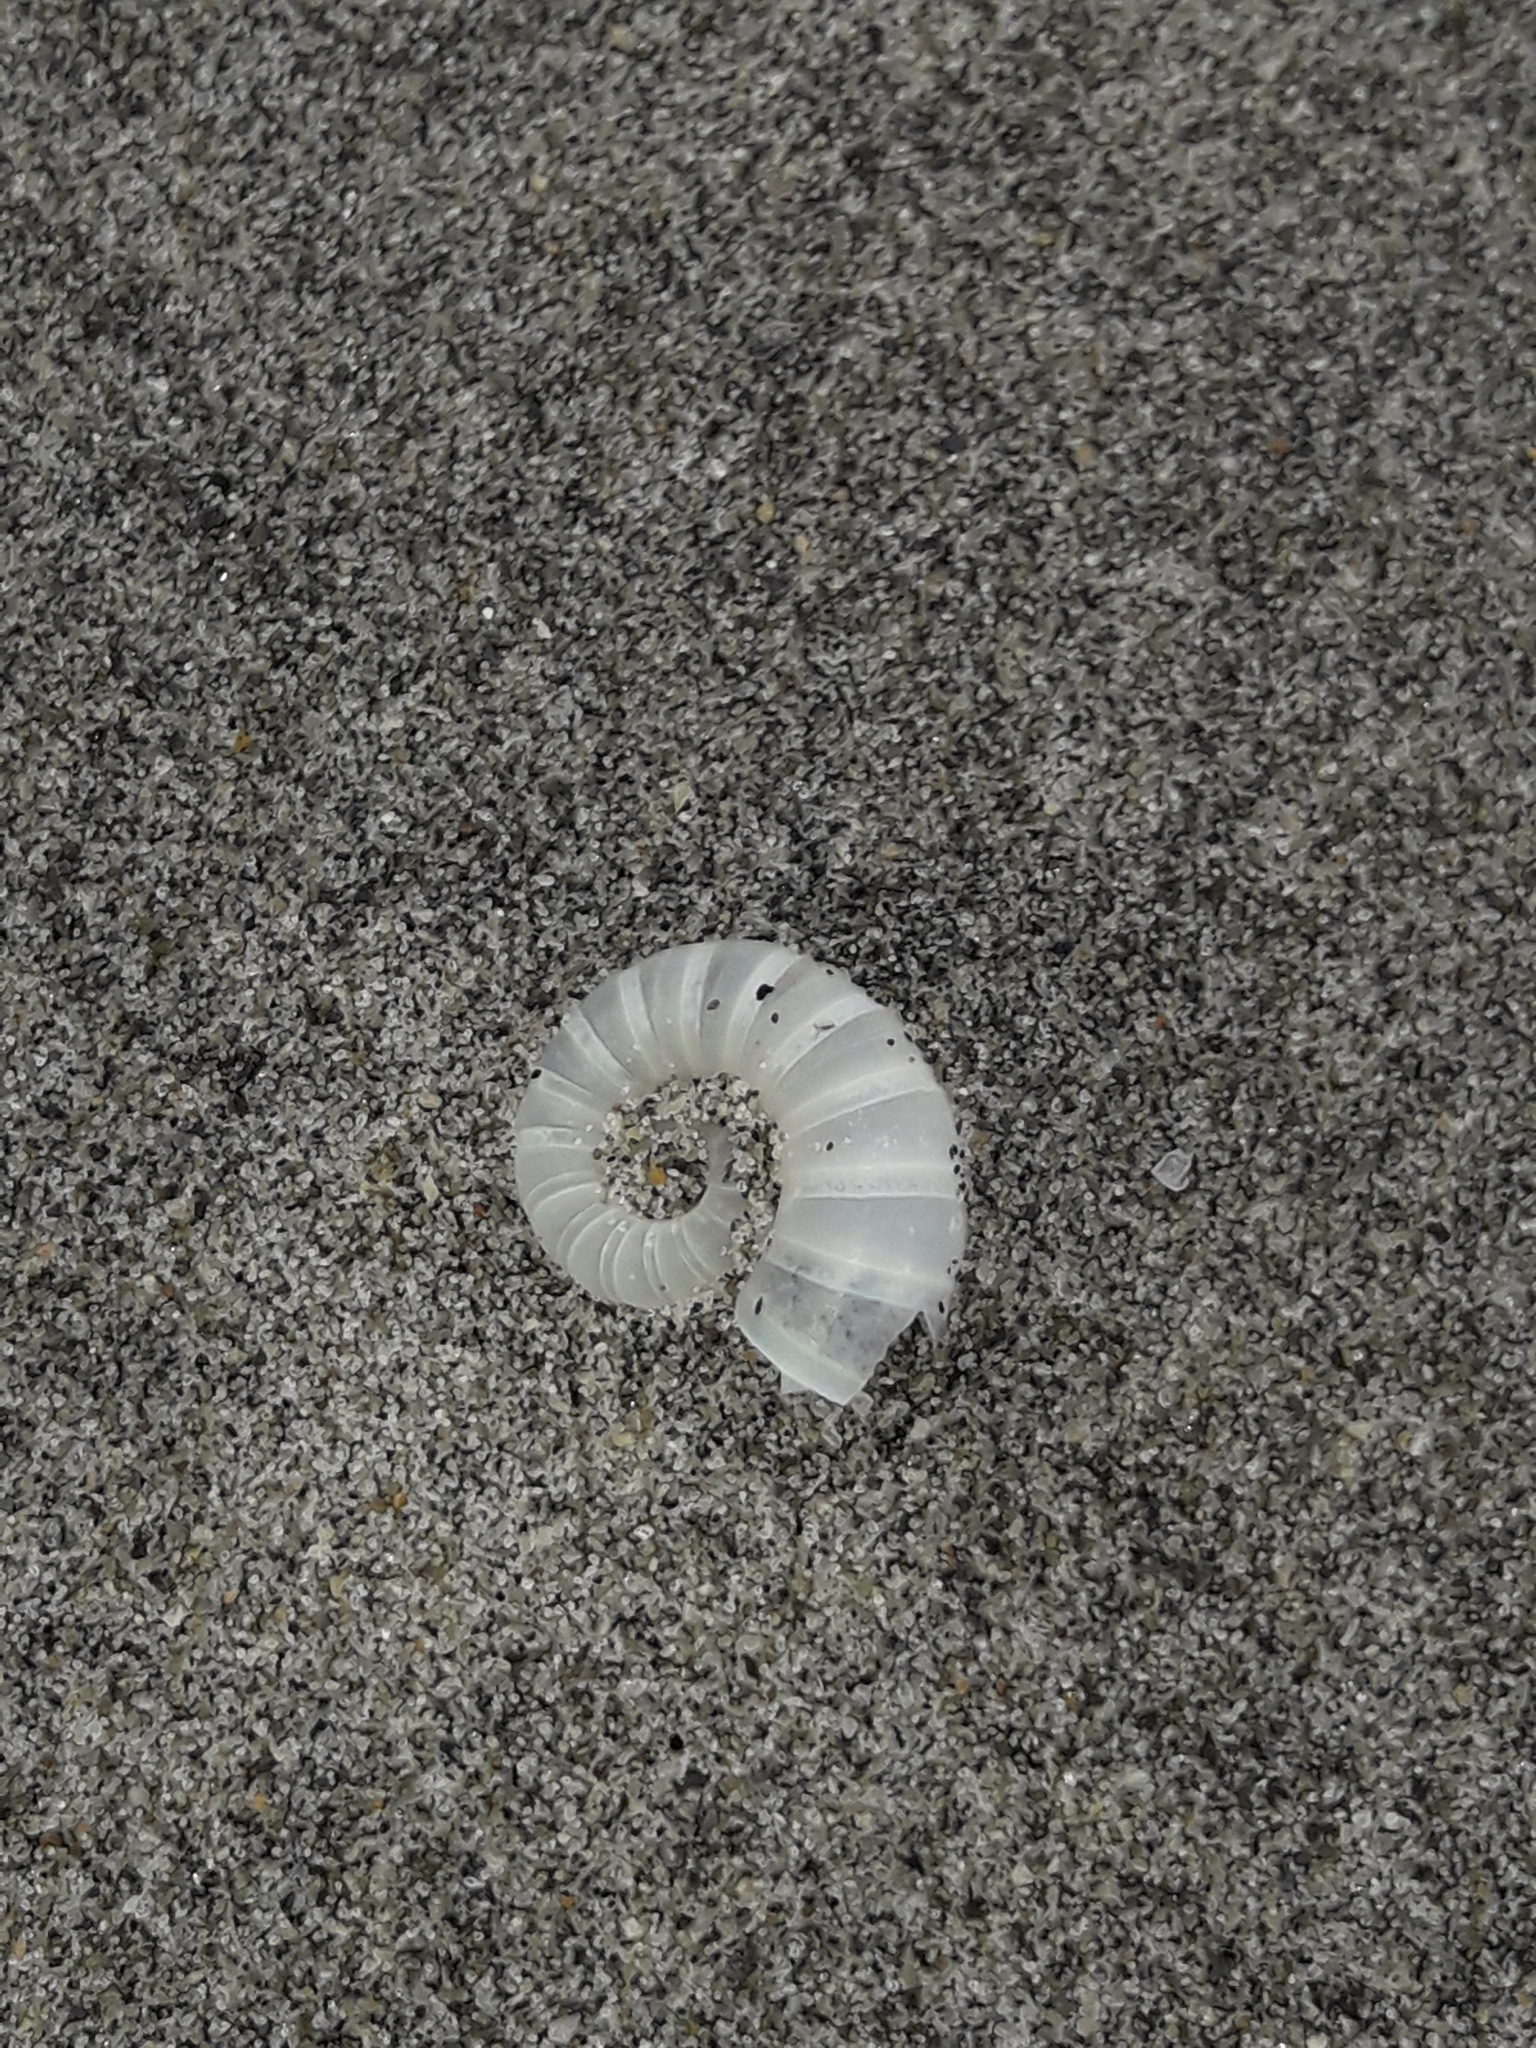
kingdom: Animalia
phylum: Mollusca
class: Cephalopoda
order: Spirulida
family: Spirulidae
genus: Spirula
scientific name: Spirula spirula
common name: Ram's horn squid
